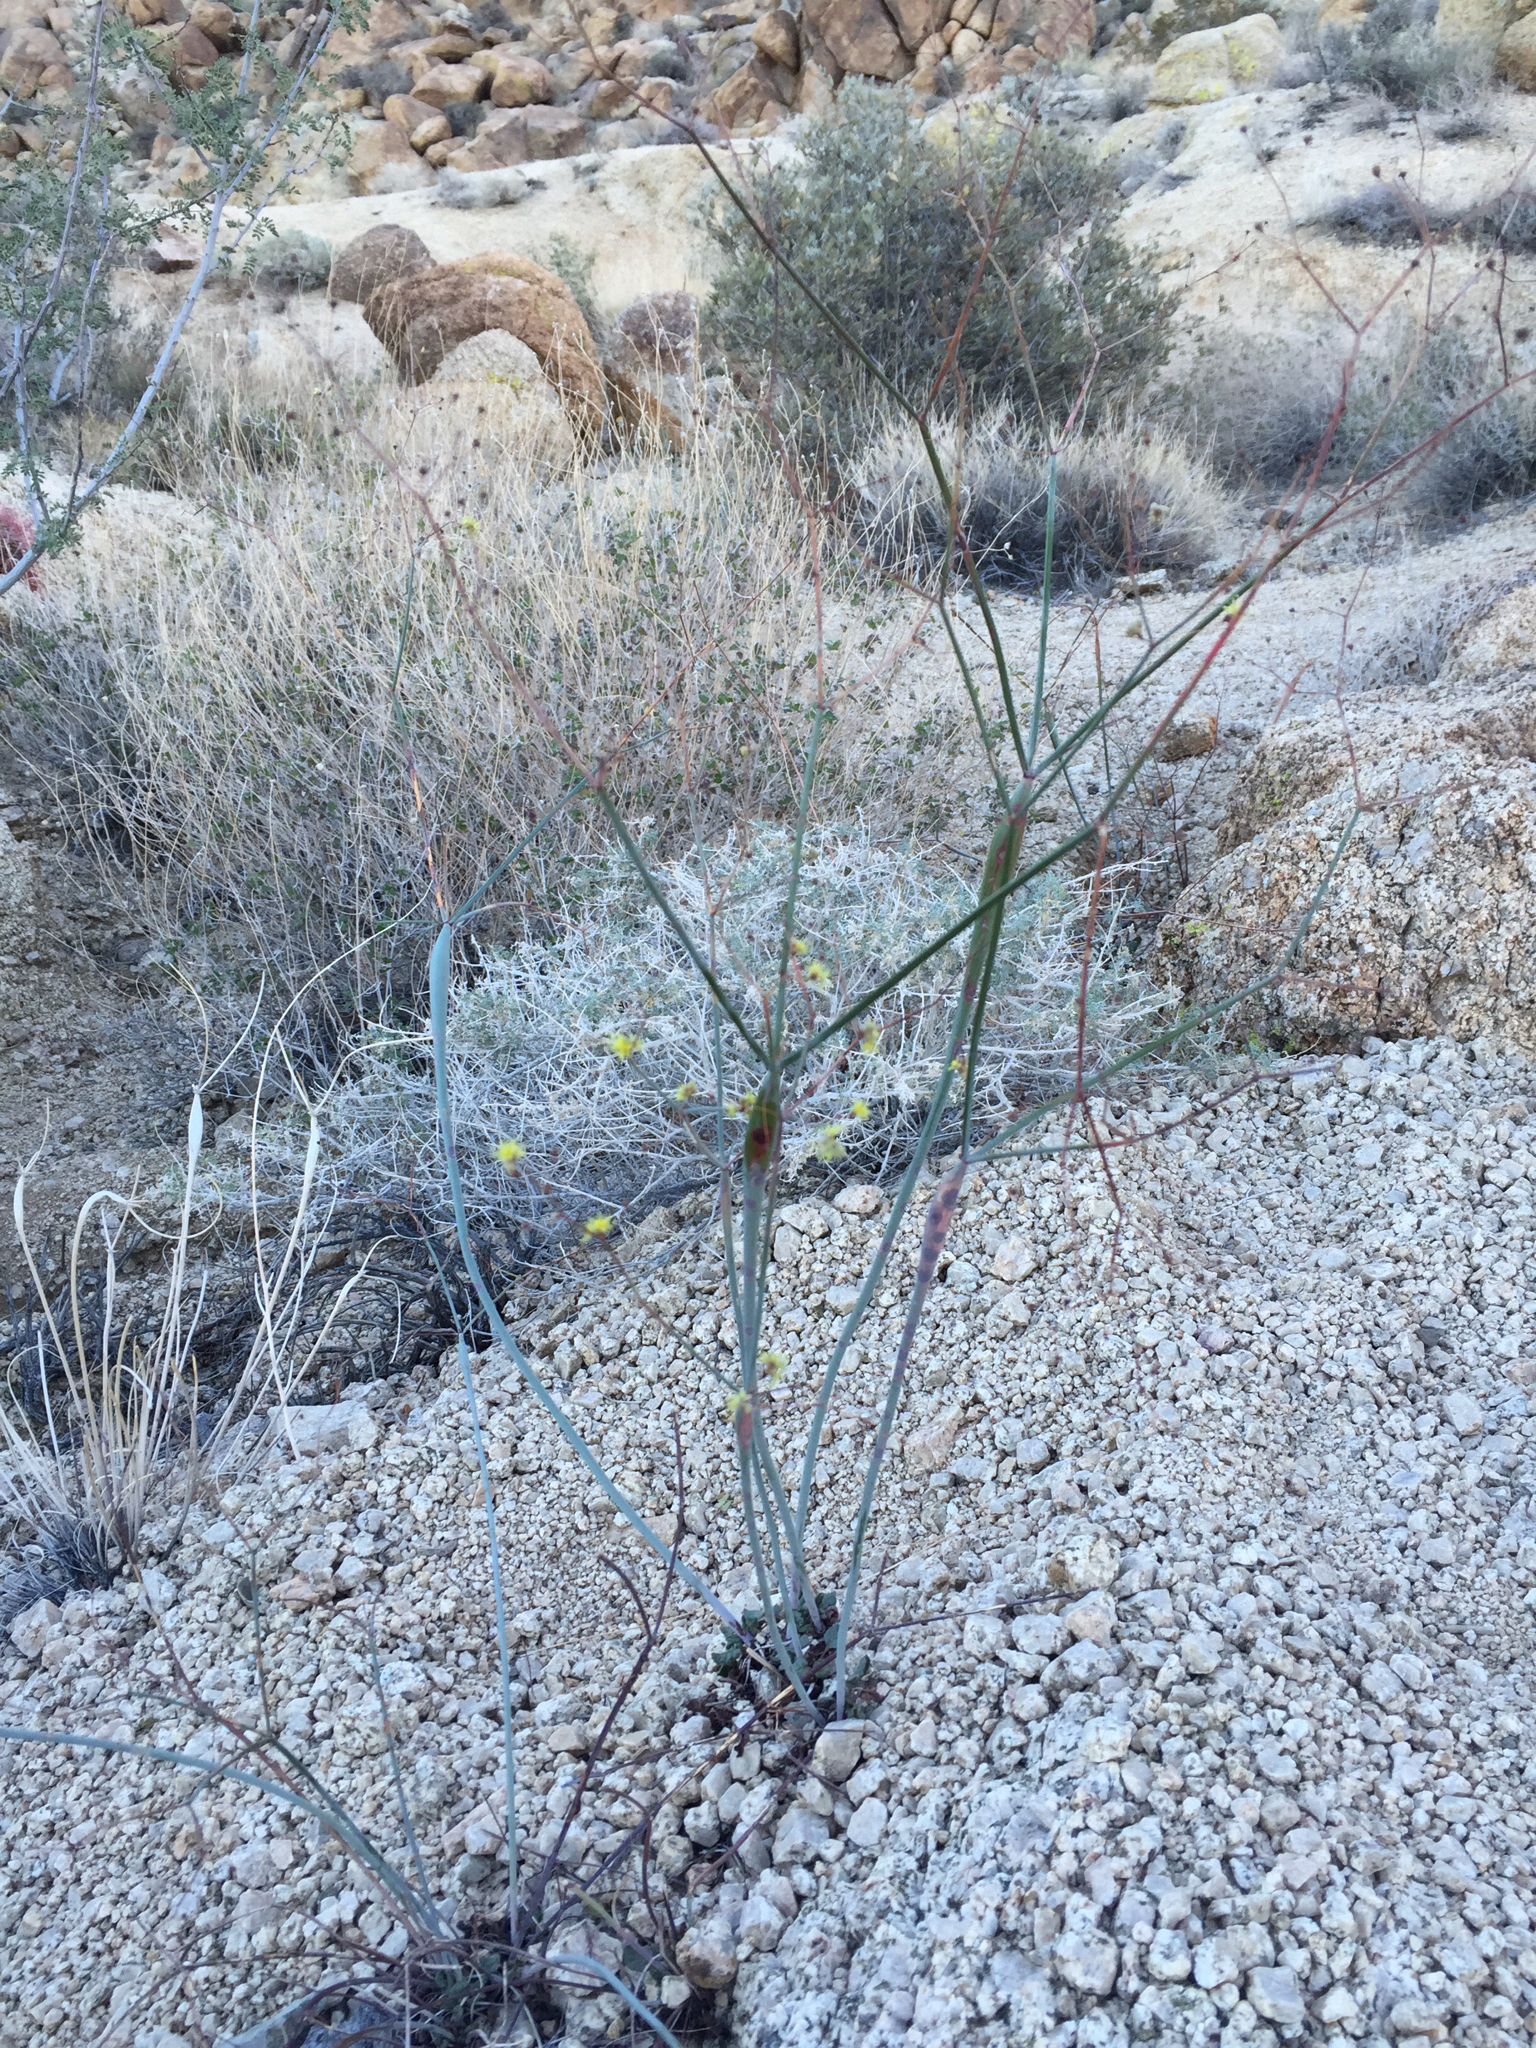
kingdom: Plantae
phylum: Tracheophyta
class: Magnoliopsida
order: Caryophyllales
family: Polygonaceae
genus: Eriogonum
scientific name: Eriogonum inflatum
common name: Desert trumpet
